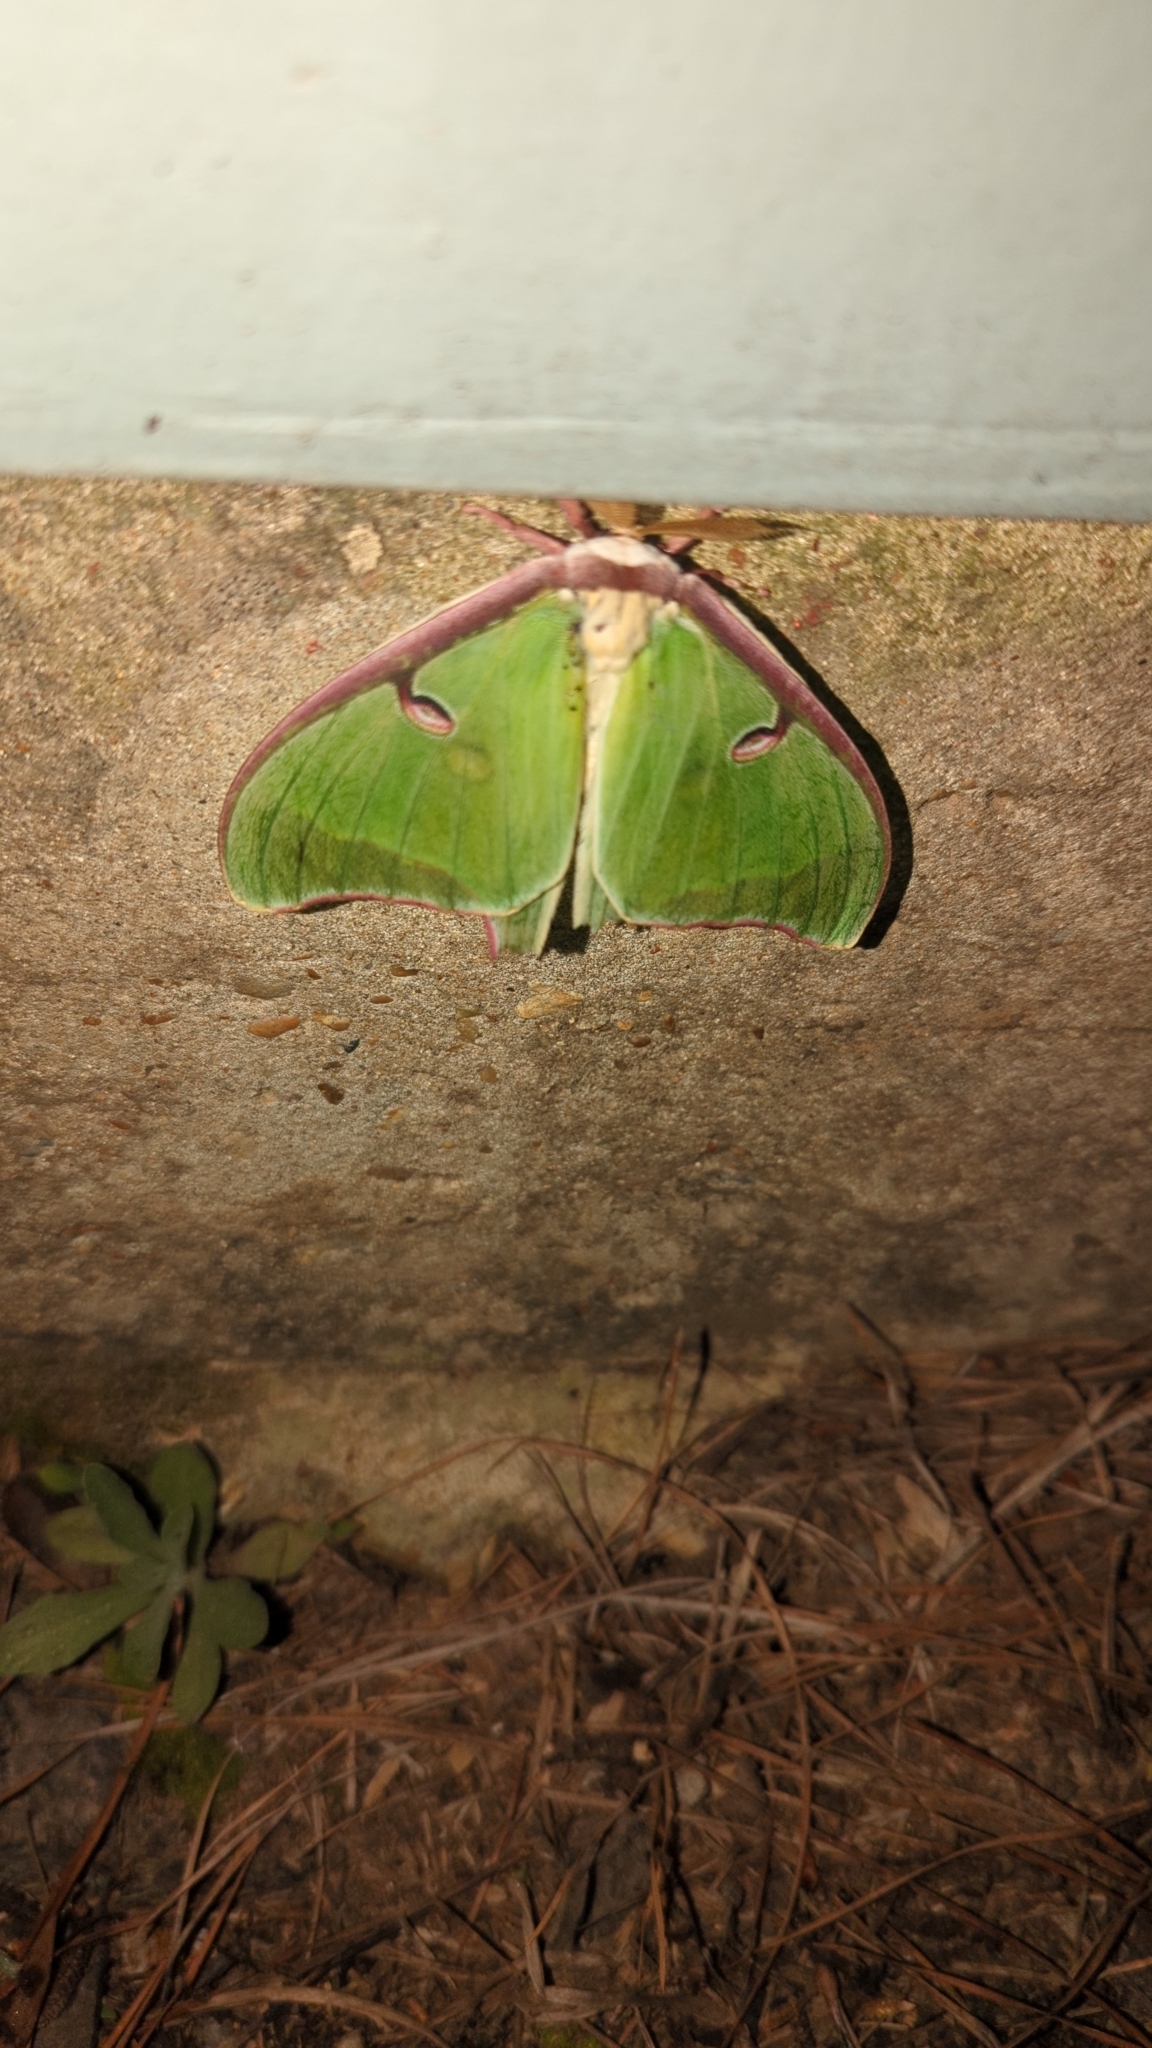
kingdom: Animalia
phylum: Arthropoda
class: Insecta
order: Lepidoptera
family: Saturniidae
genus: Actias
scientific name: Actias luna
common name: Luna moth
